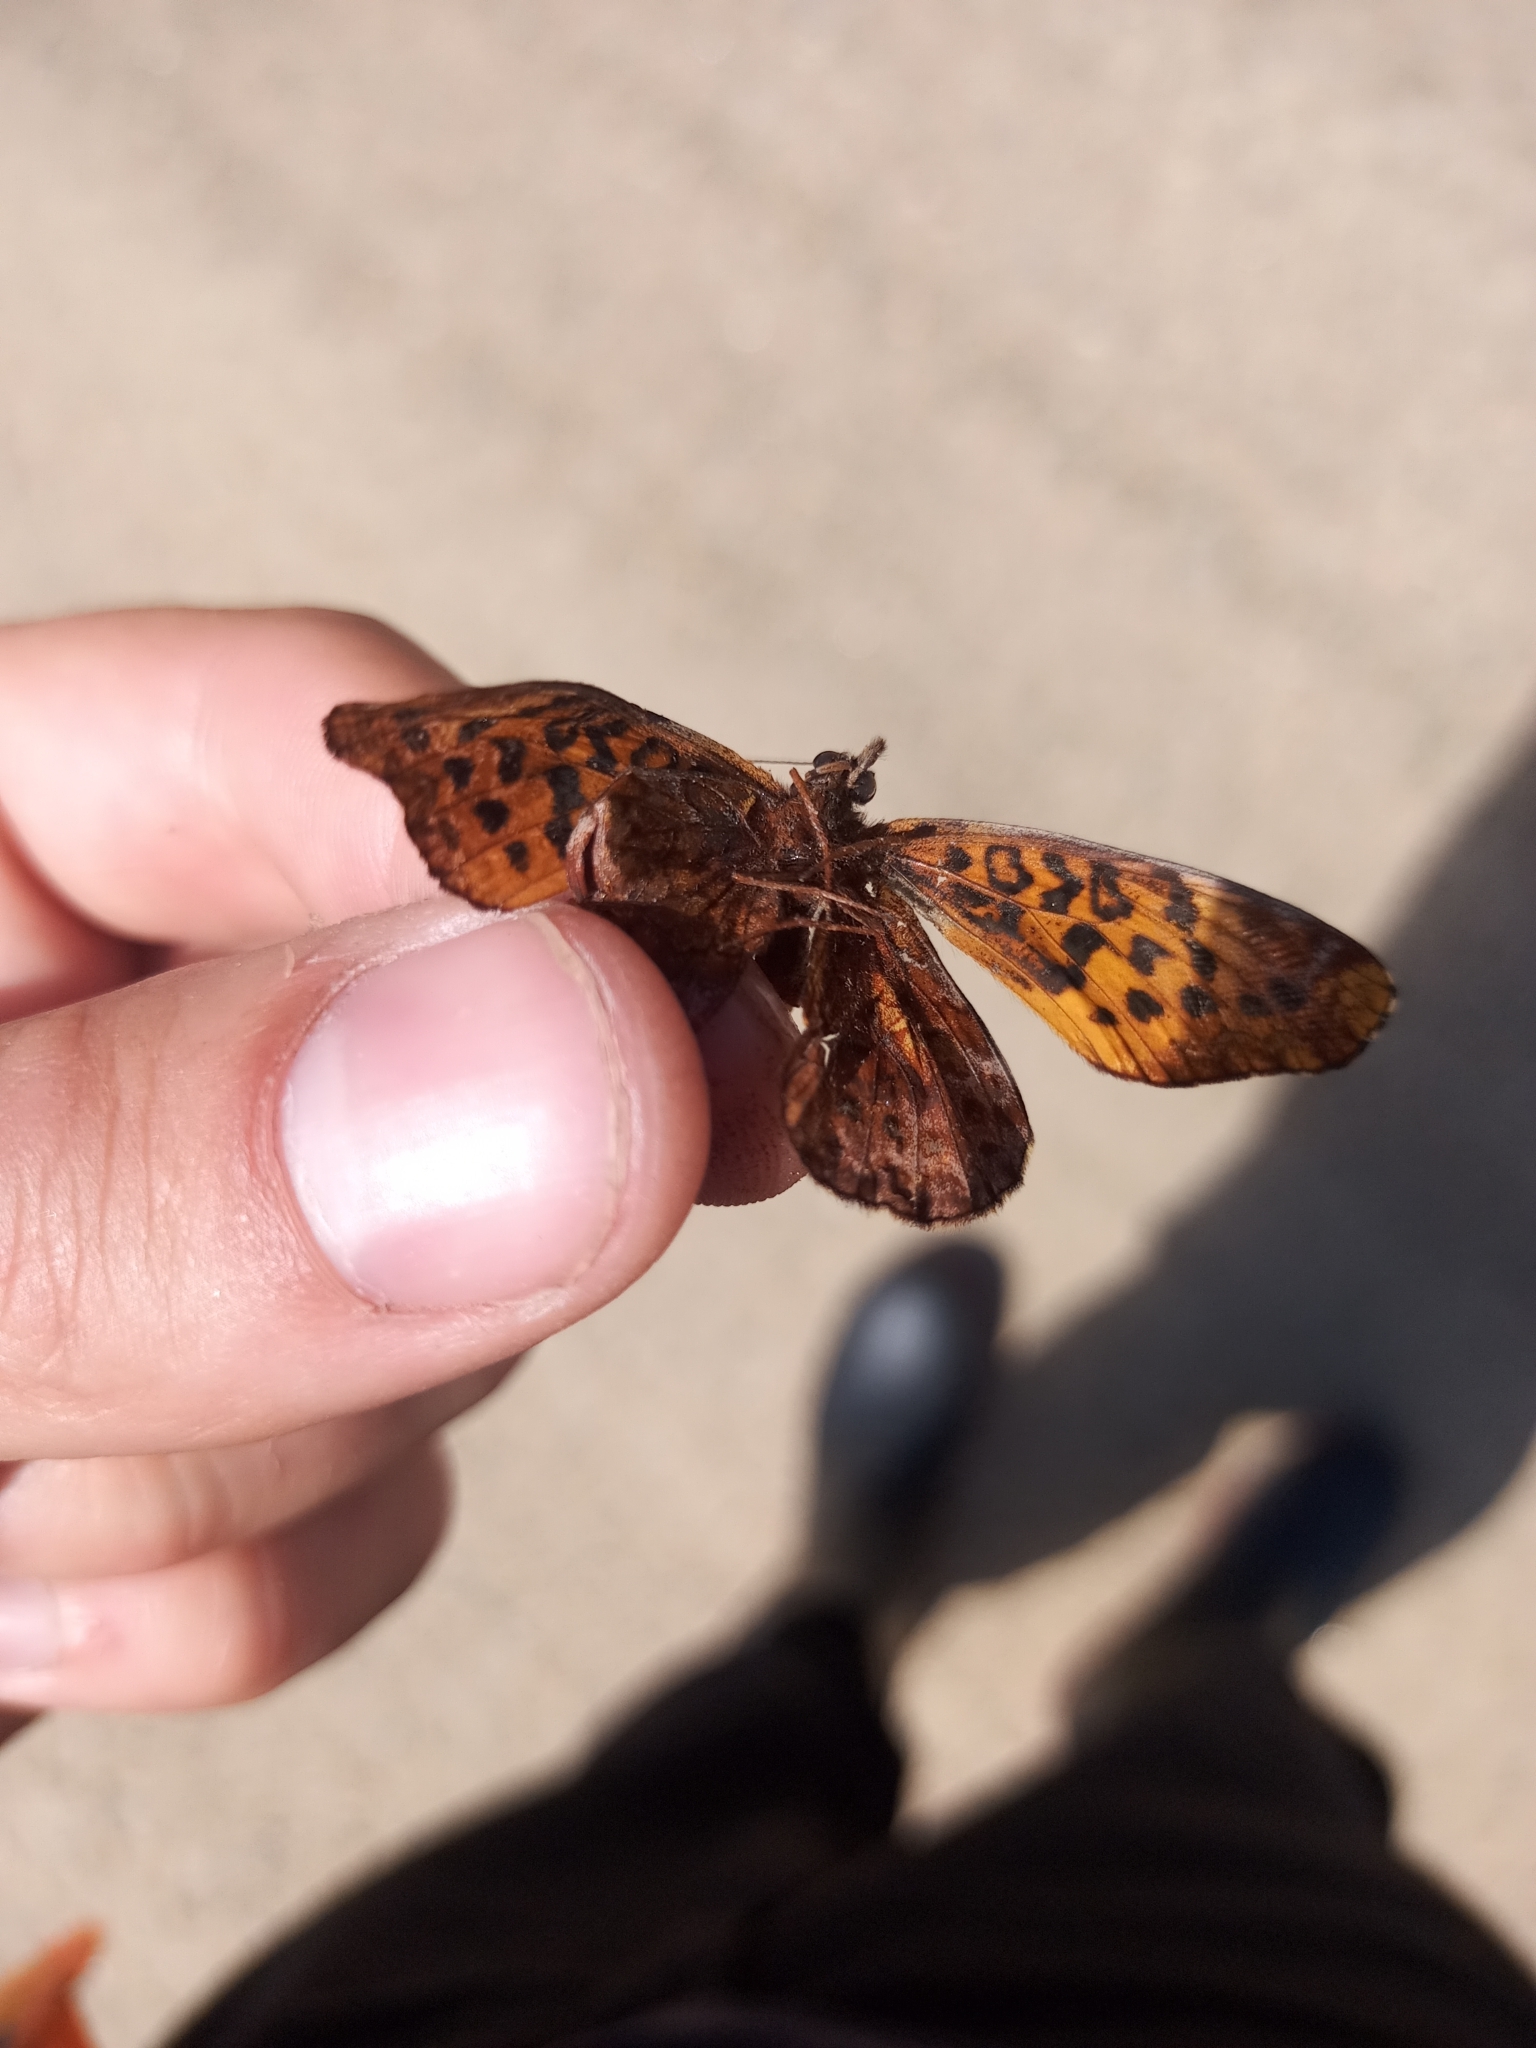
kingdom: Animalia
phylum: Arthropoda
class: Insecta
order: Lepidoptera
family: Nymphalidae
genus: Clossiana
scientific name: Clossiana toddi
